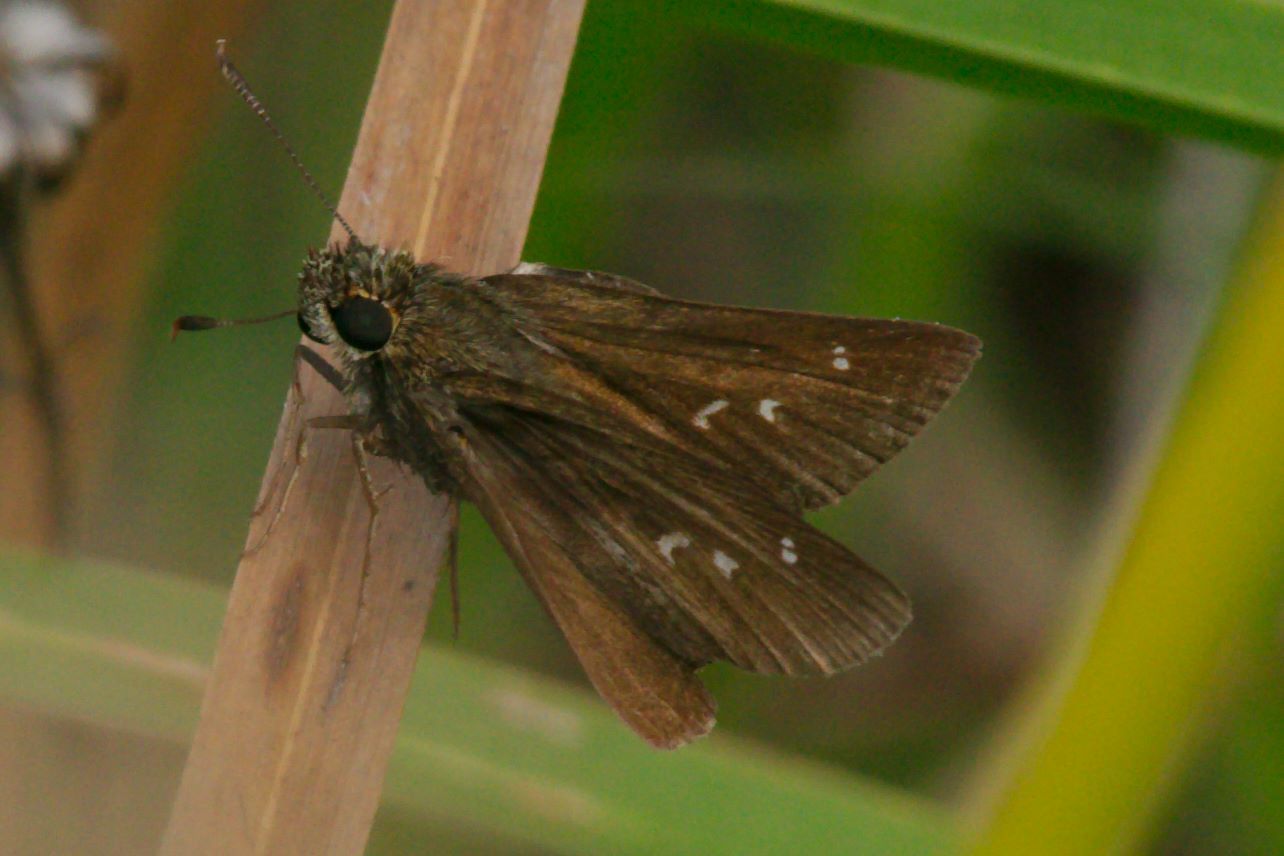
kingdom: Animalia
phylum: Arthropoda
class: Insecta
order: Lepidoptera
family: Hesperiidae
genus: Oligoria
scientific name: Oligoria maculata
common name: Twin-spot skipper
